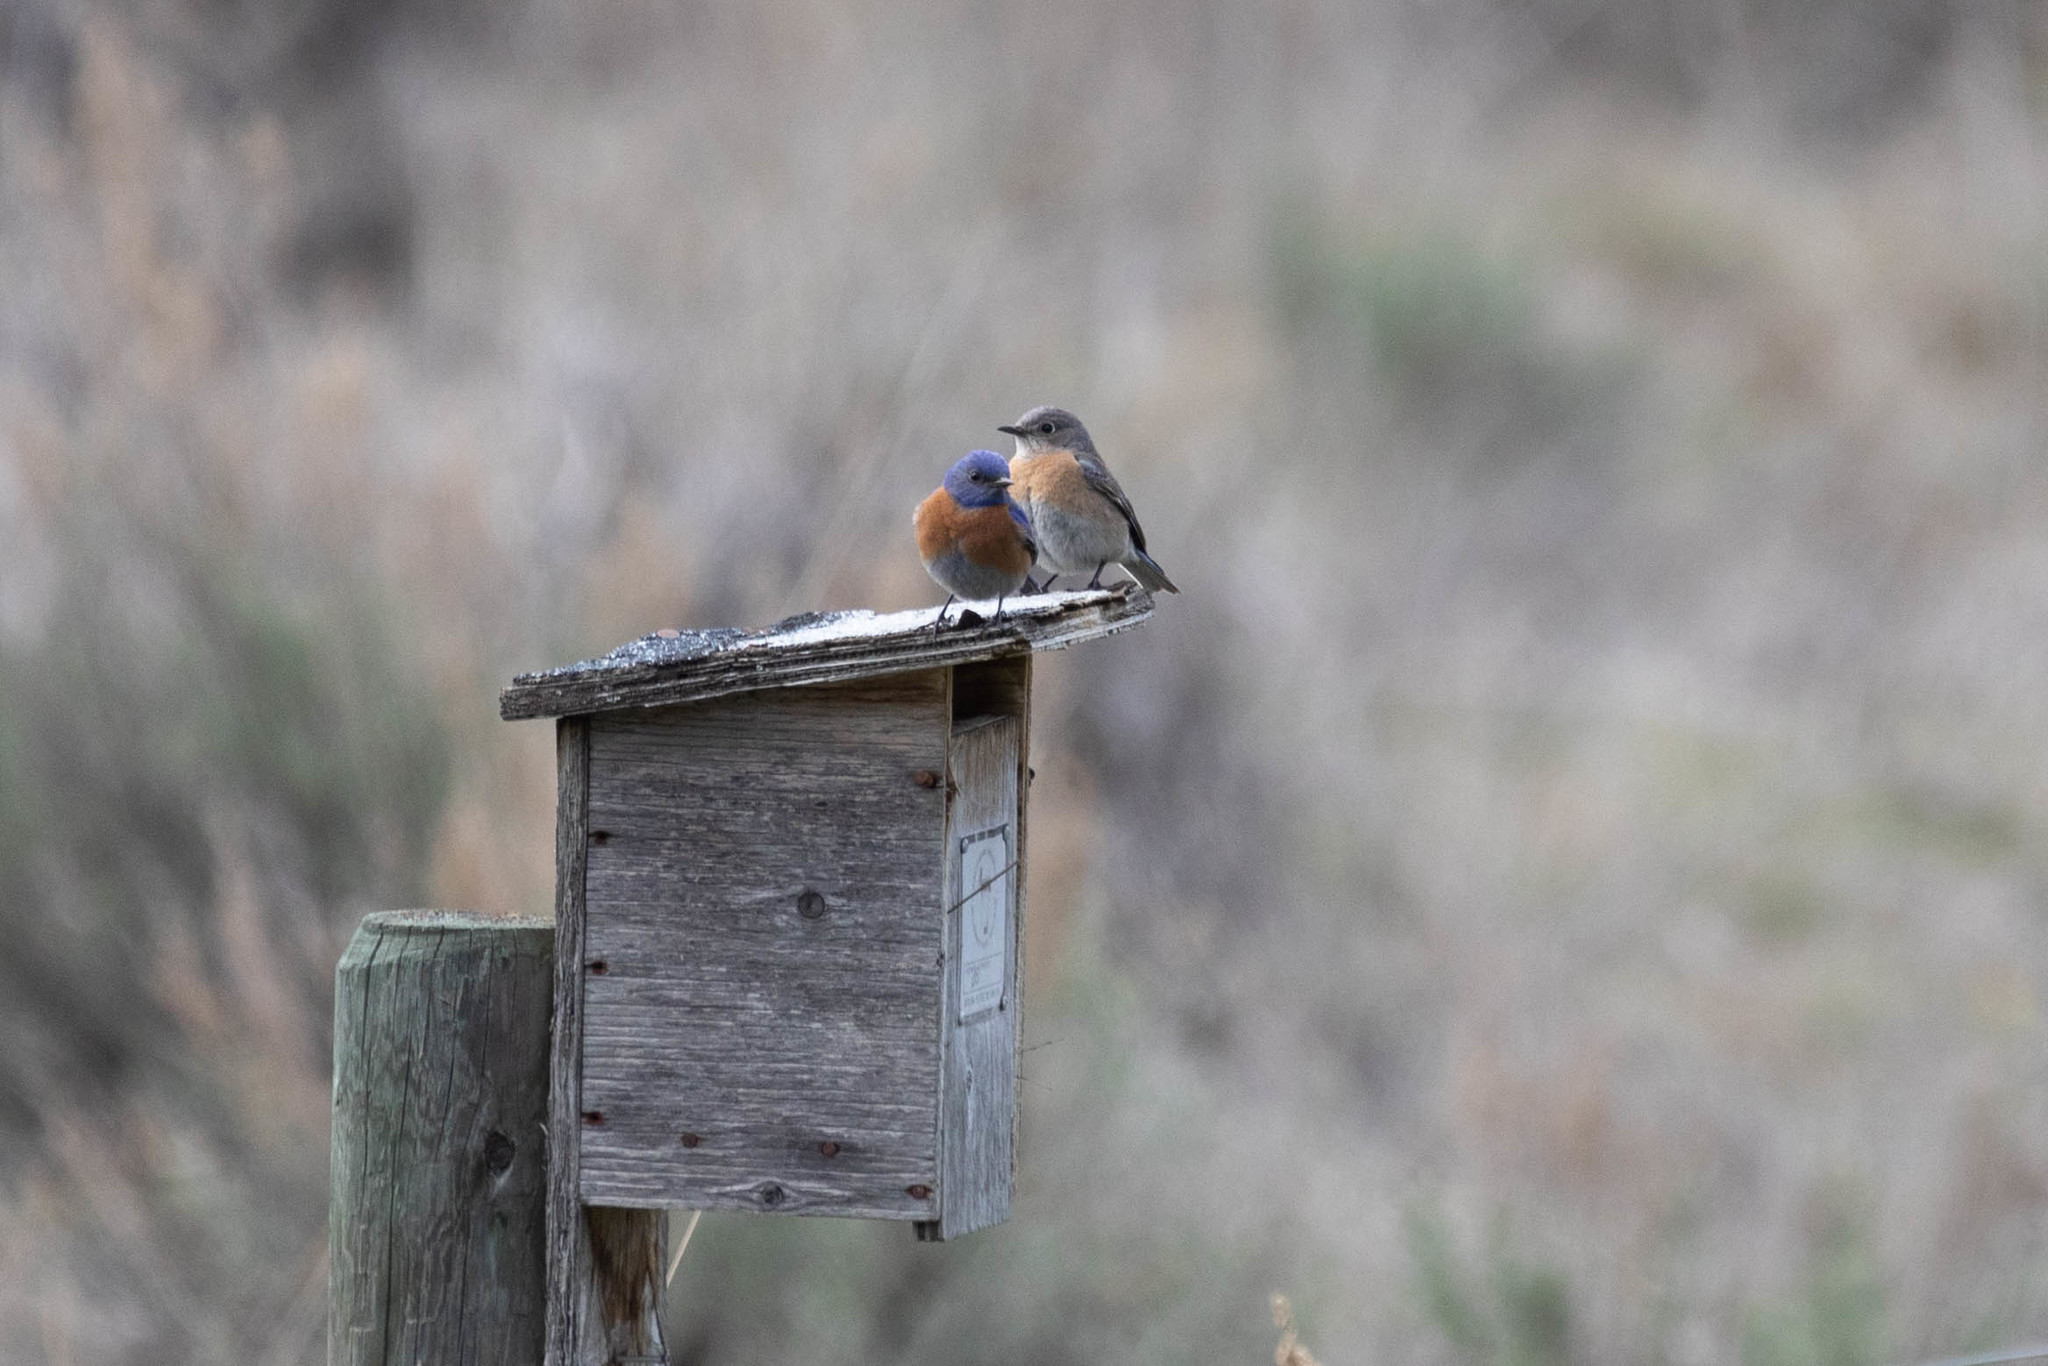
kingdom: Animalia
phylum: Chordata
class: Aves
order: Passeriformes
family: Turdidae
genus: Sialia
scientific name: Sialia mexicana
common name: Western bluebird
